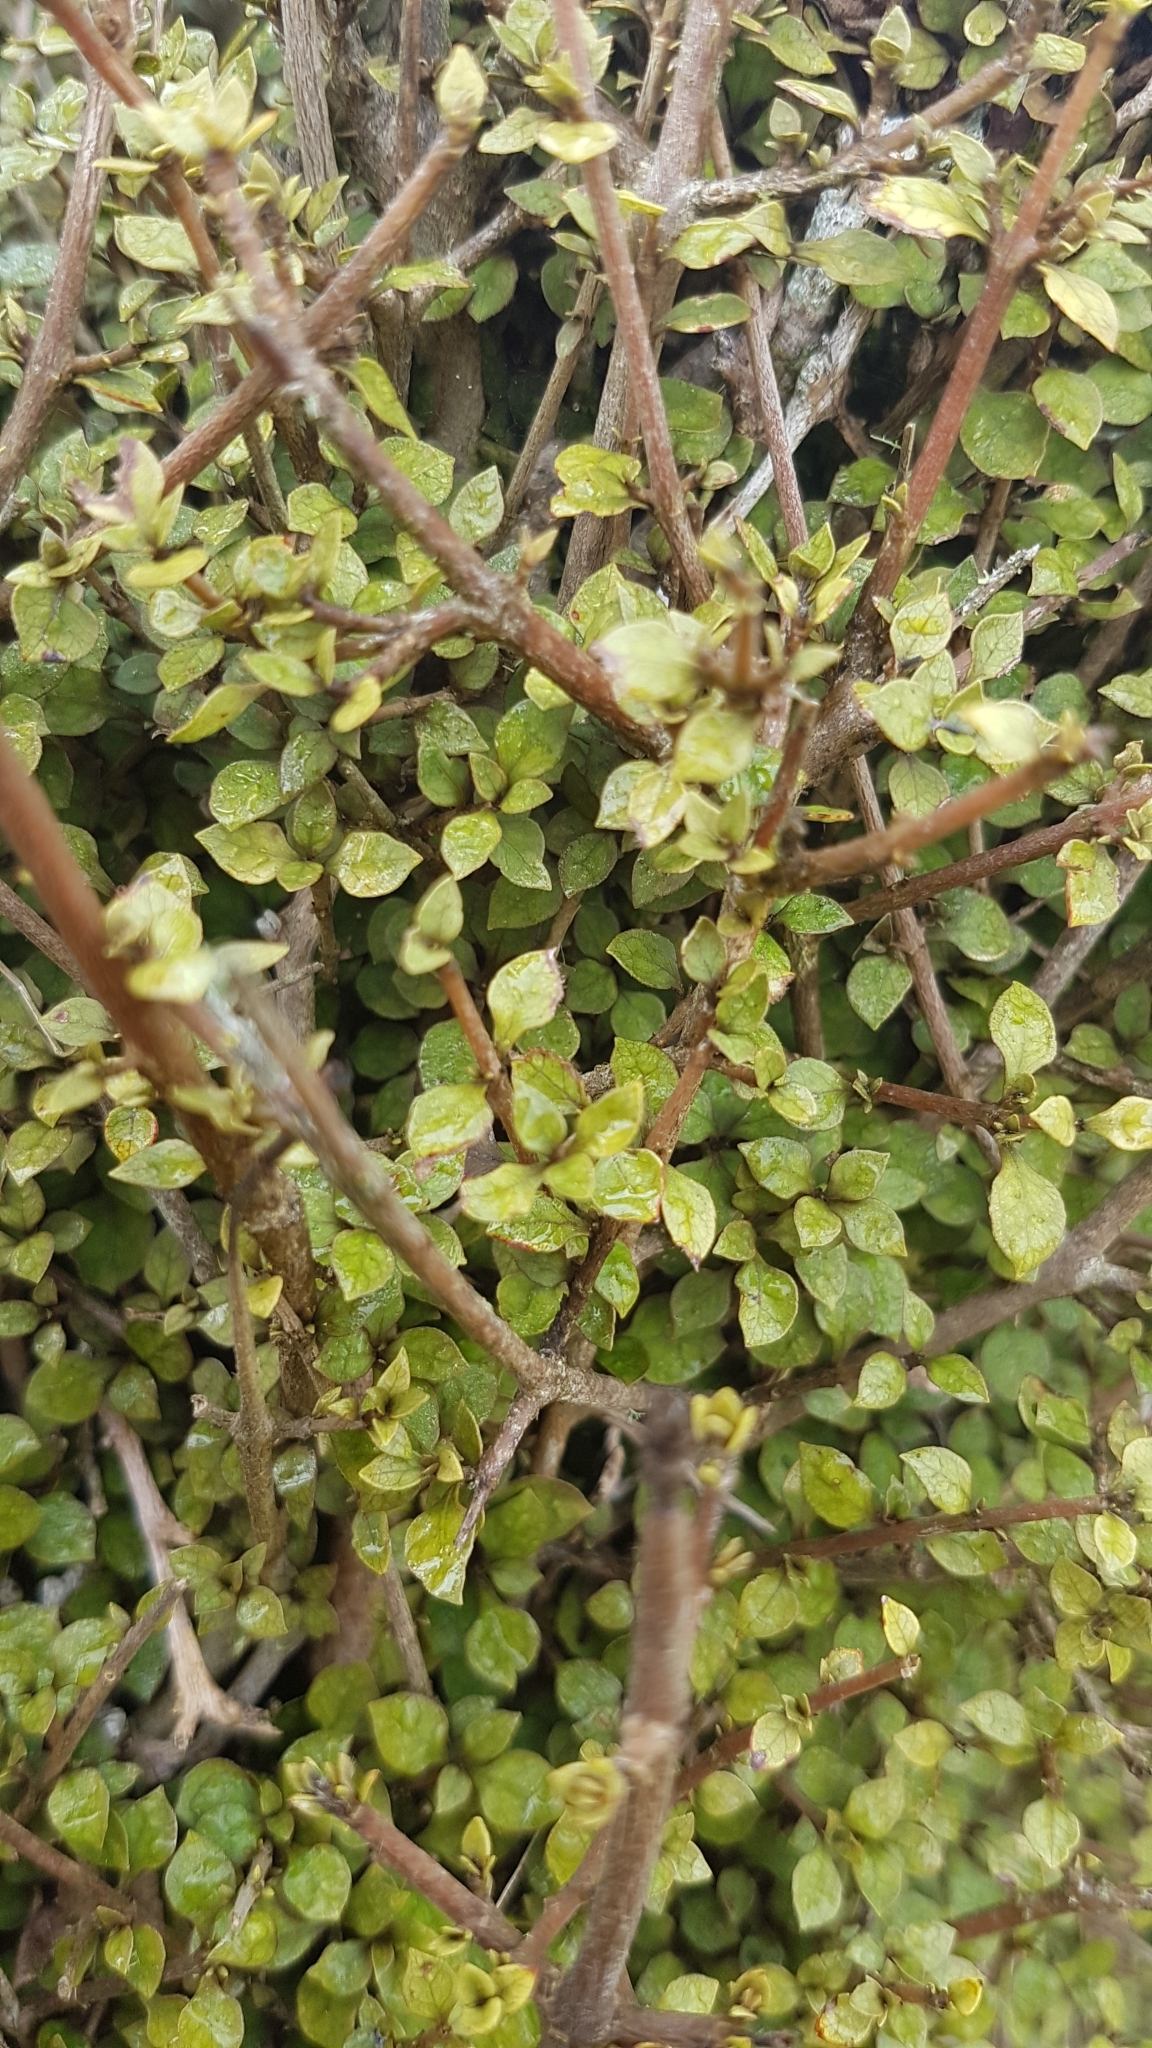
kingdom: Plantae
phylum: Tracheophyta
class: Magnoliopsida
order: Gentianales
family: Rubiaceae
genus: Coprosma
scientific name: Coprosma areolata
